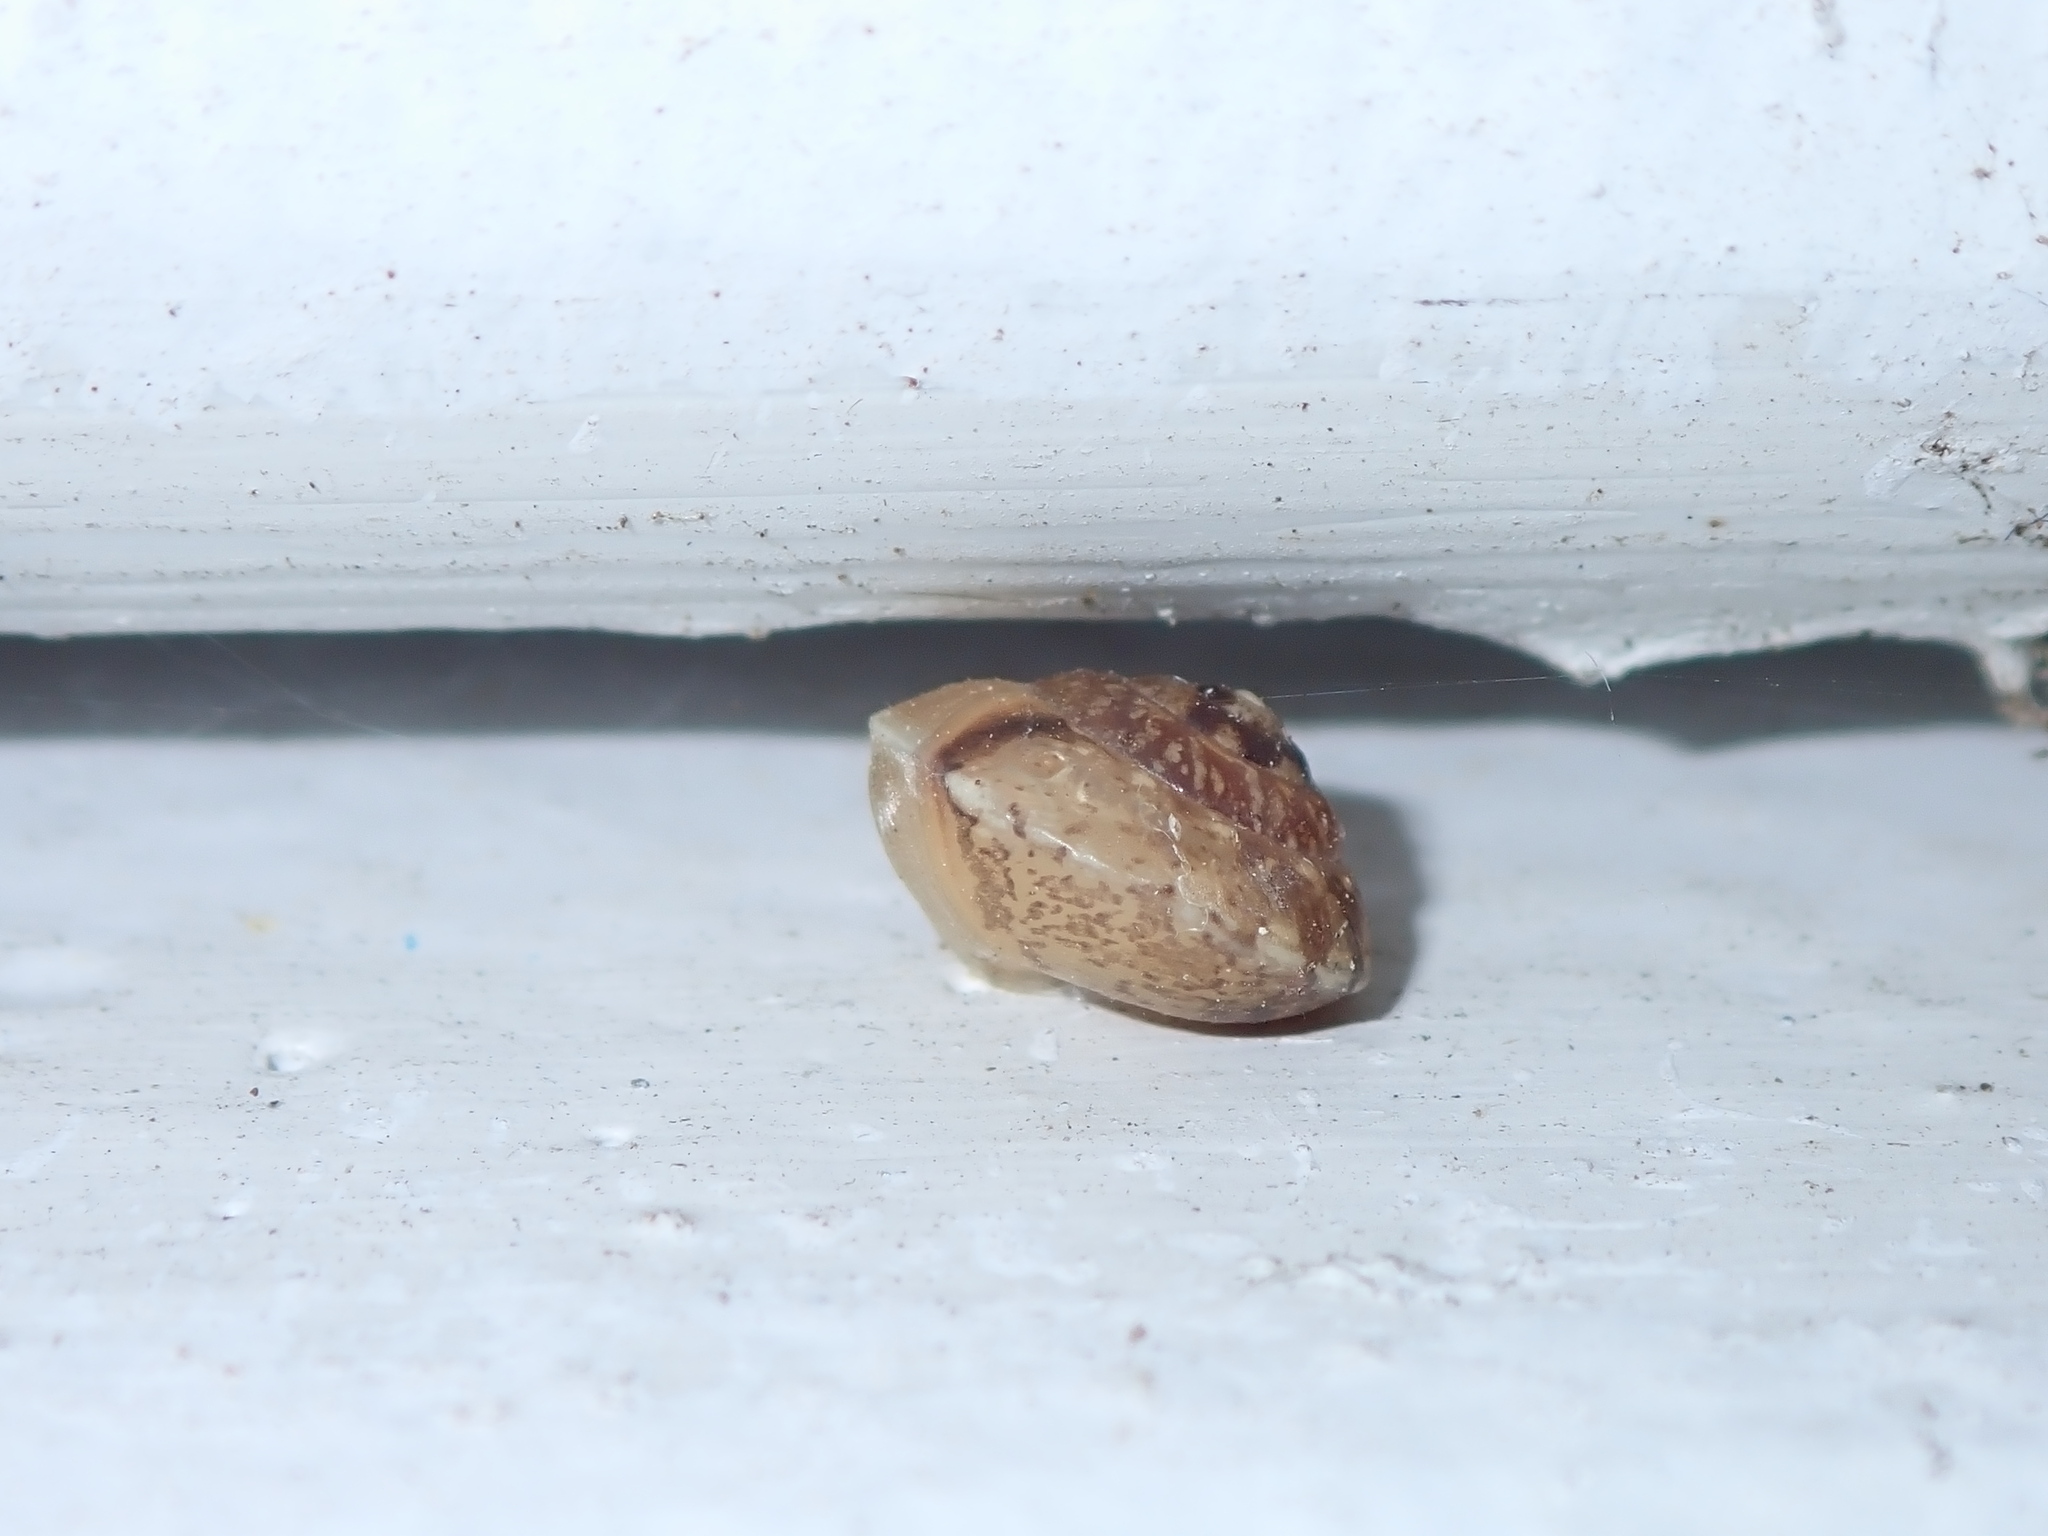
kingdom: Animalia
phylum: Mollusca
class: Gastropoda
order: Stylommatophora
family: Hygromiidae
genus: Hygromia
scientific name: Hygromia cinctella
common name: Girdled snail
